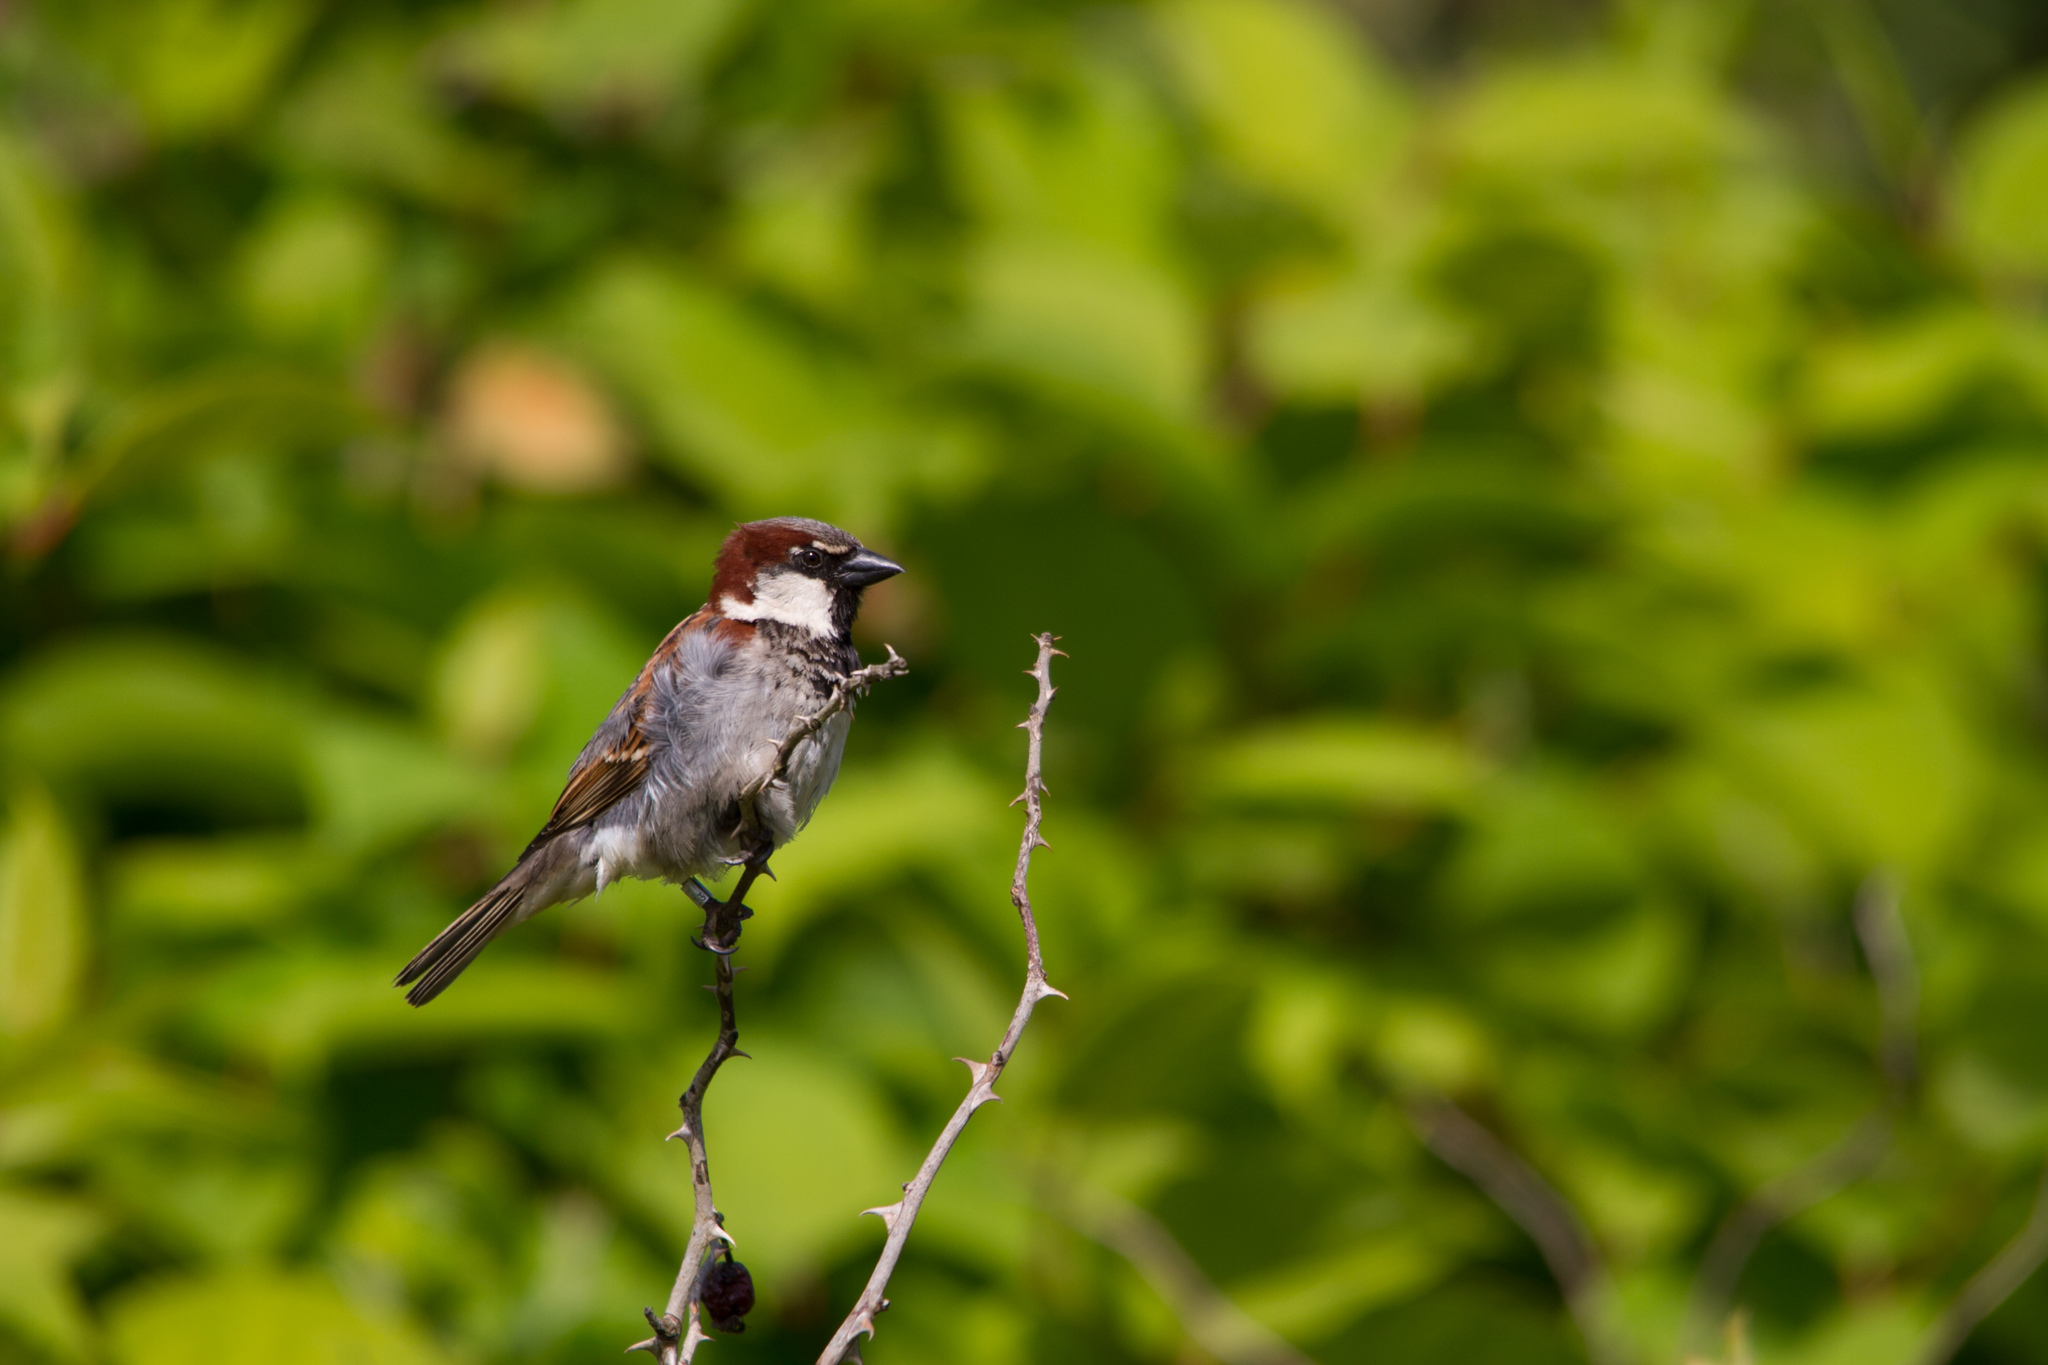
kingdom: Animalia
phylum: Chordata
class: Aves
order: Passeriformes
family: Passeridae
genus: Passer
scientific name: Passer domesticus
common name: House sparrow
